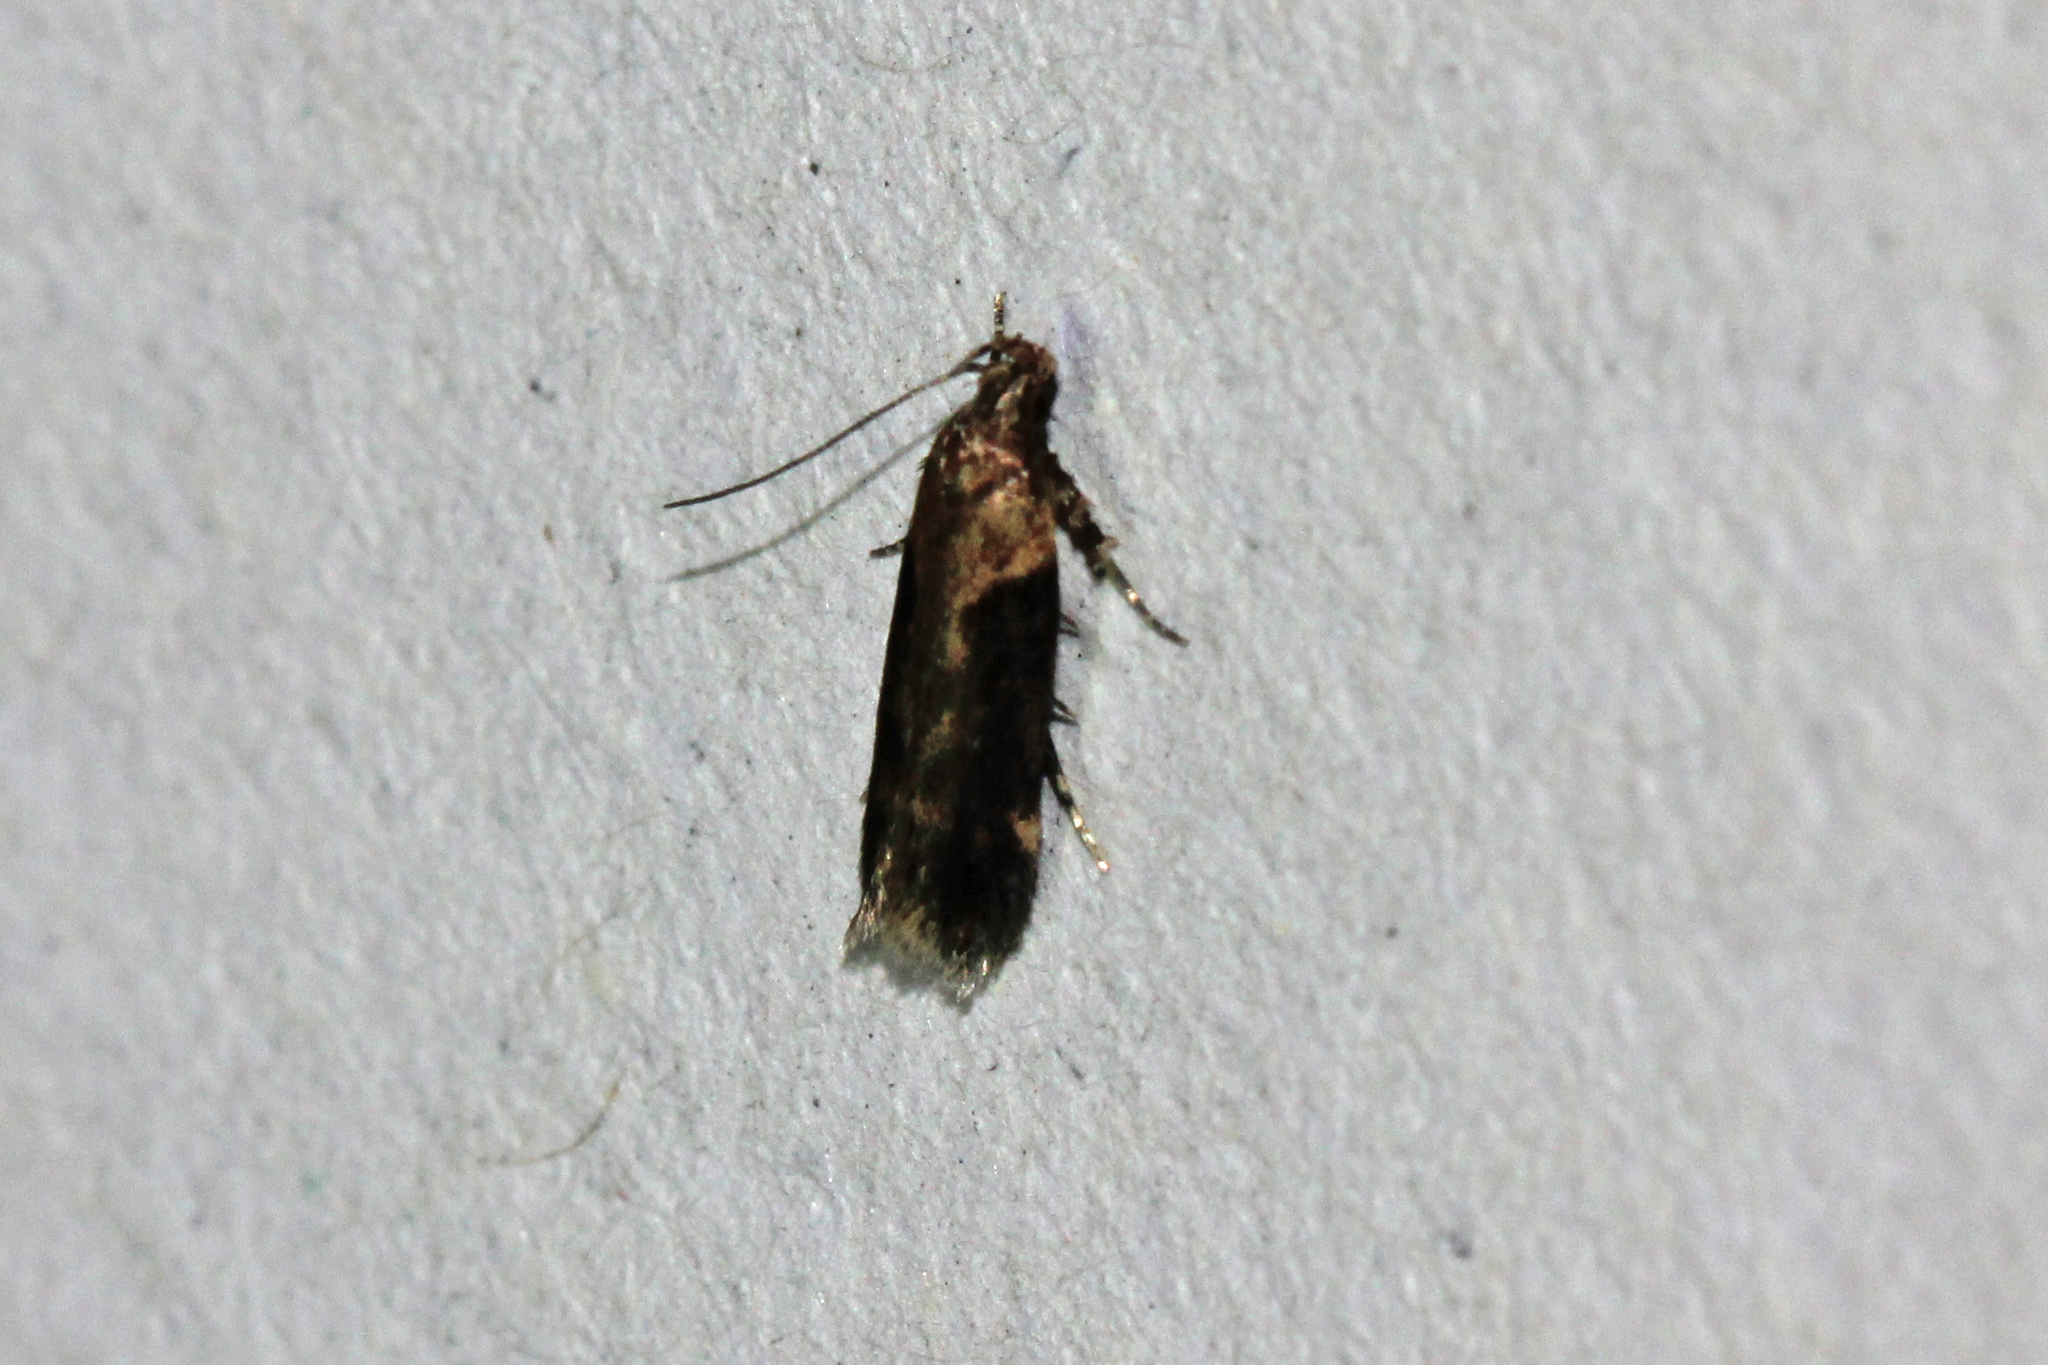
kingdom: Animalia
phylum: Arthropoda
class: Insecta
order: Lepidoptera
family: Gelechiidae
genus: Chionodes
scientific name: Chionodes mediofuscella
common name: Black-smudged chionodes moth
